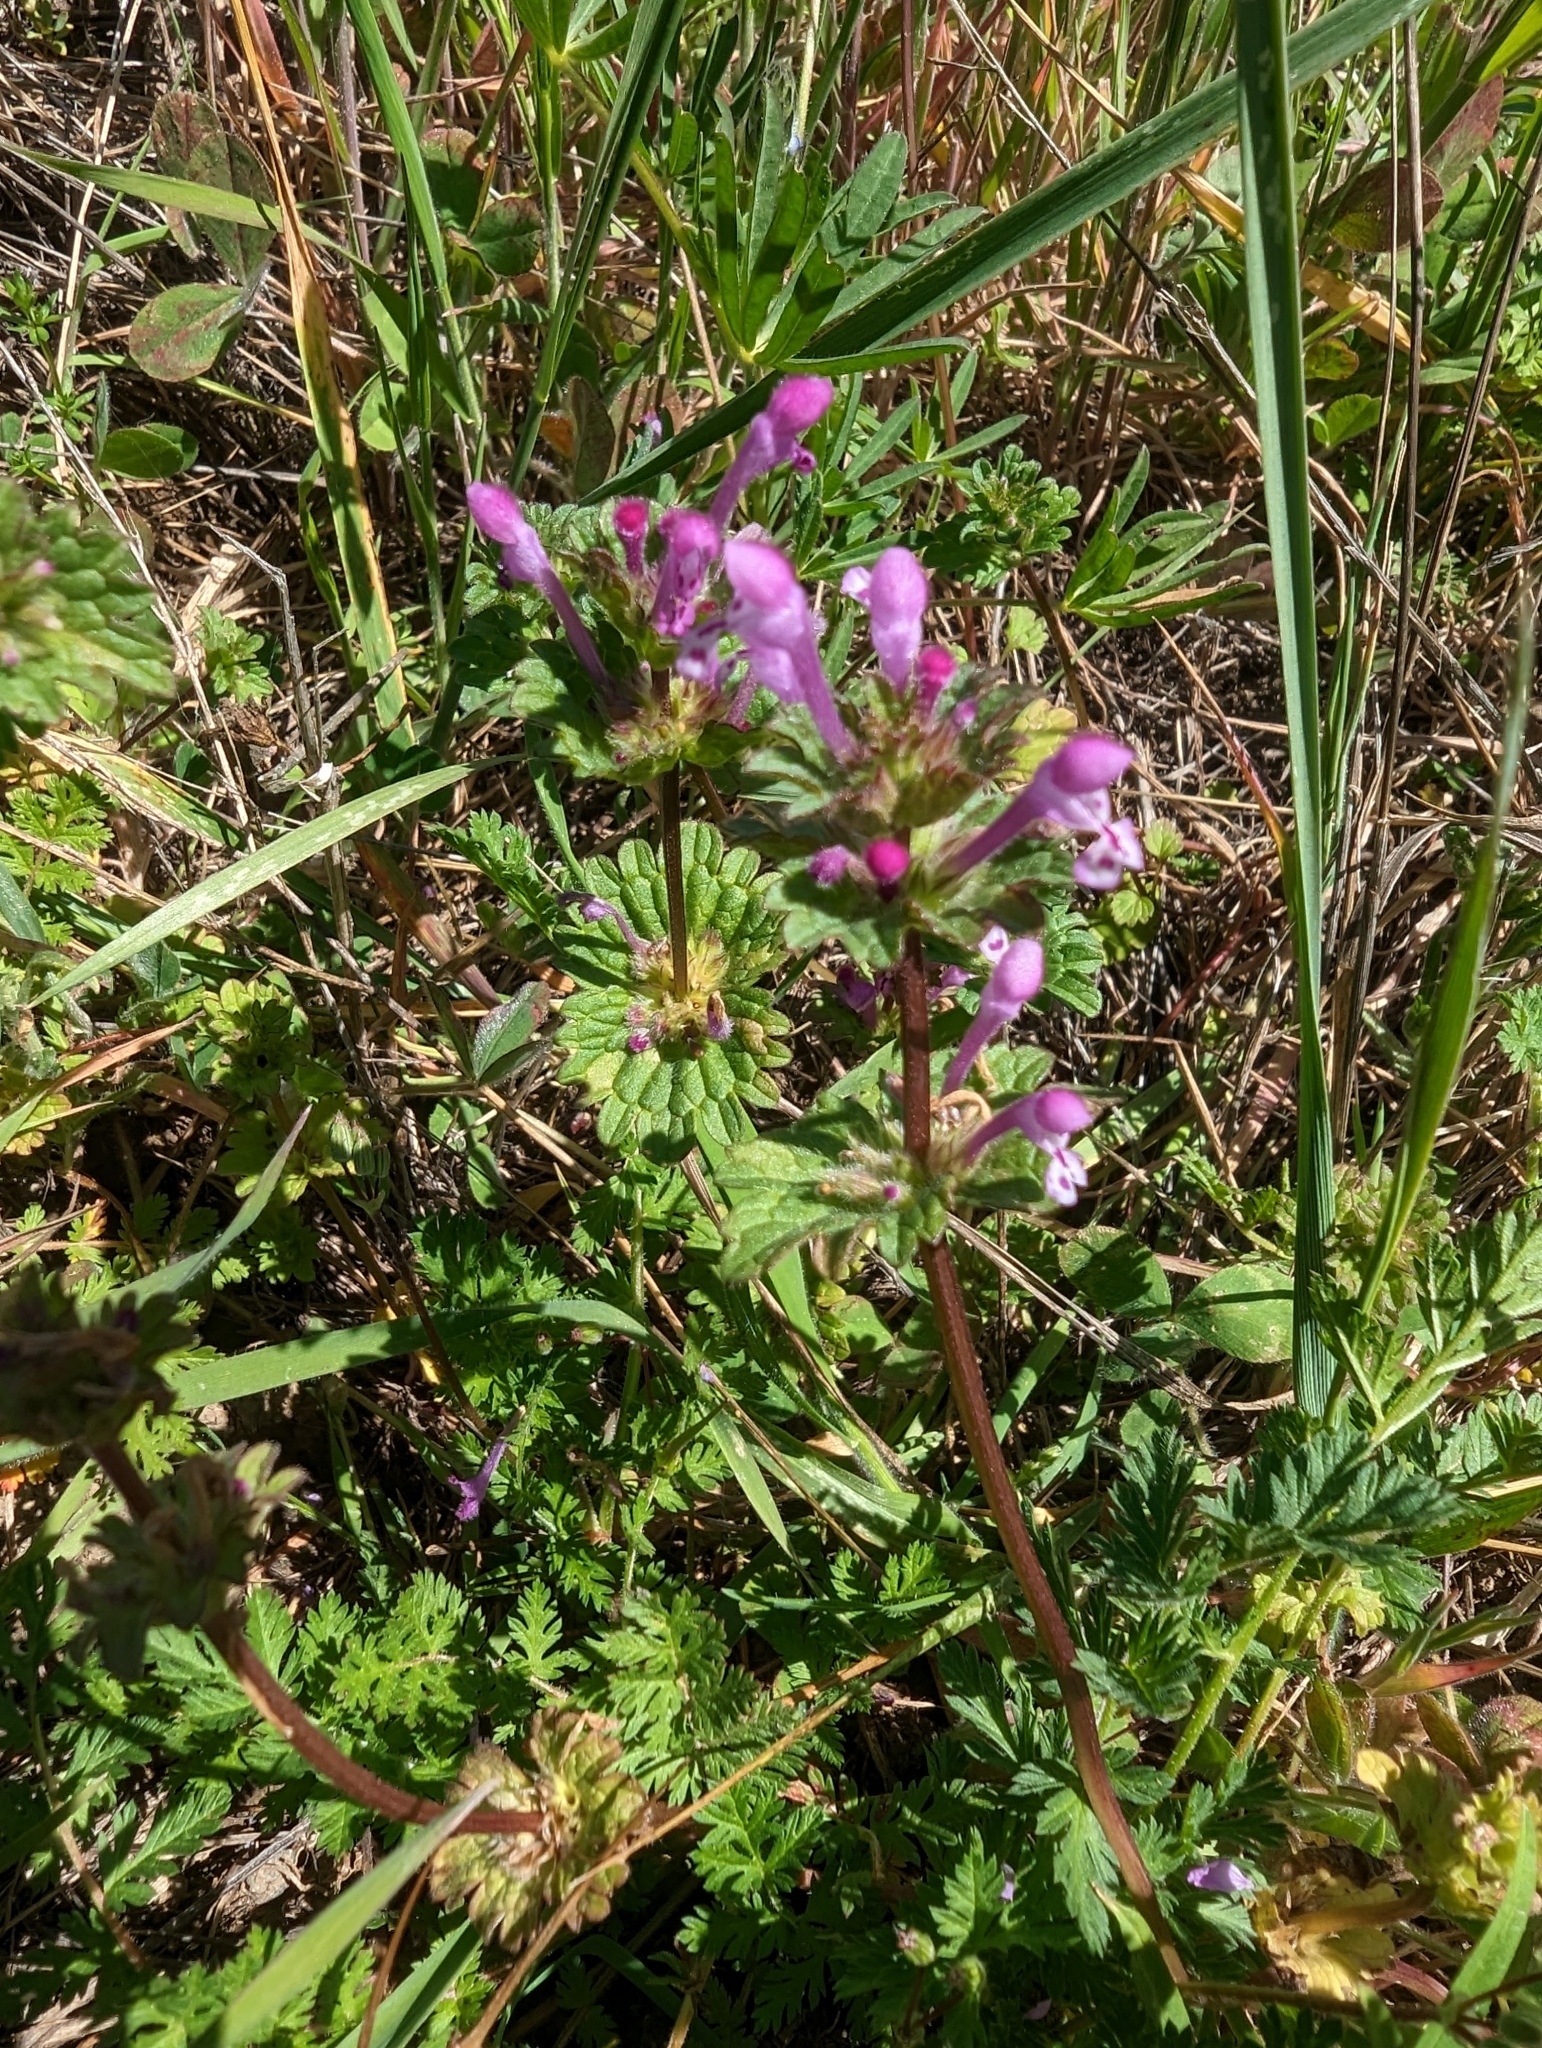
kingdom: Plantae
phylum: Tracheophyta
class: Magnoliopsida
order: Lamiales
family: Lamiaceae
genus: Lamium
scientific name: Lamium amplexicaule
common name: Henbit dead-nettle
